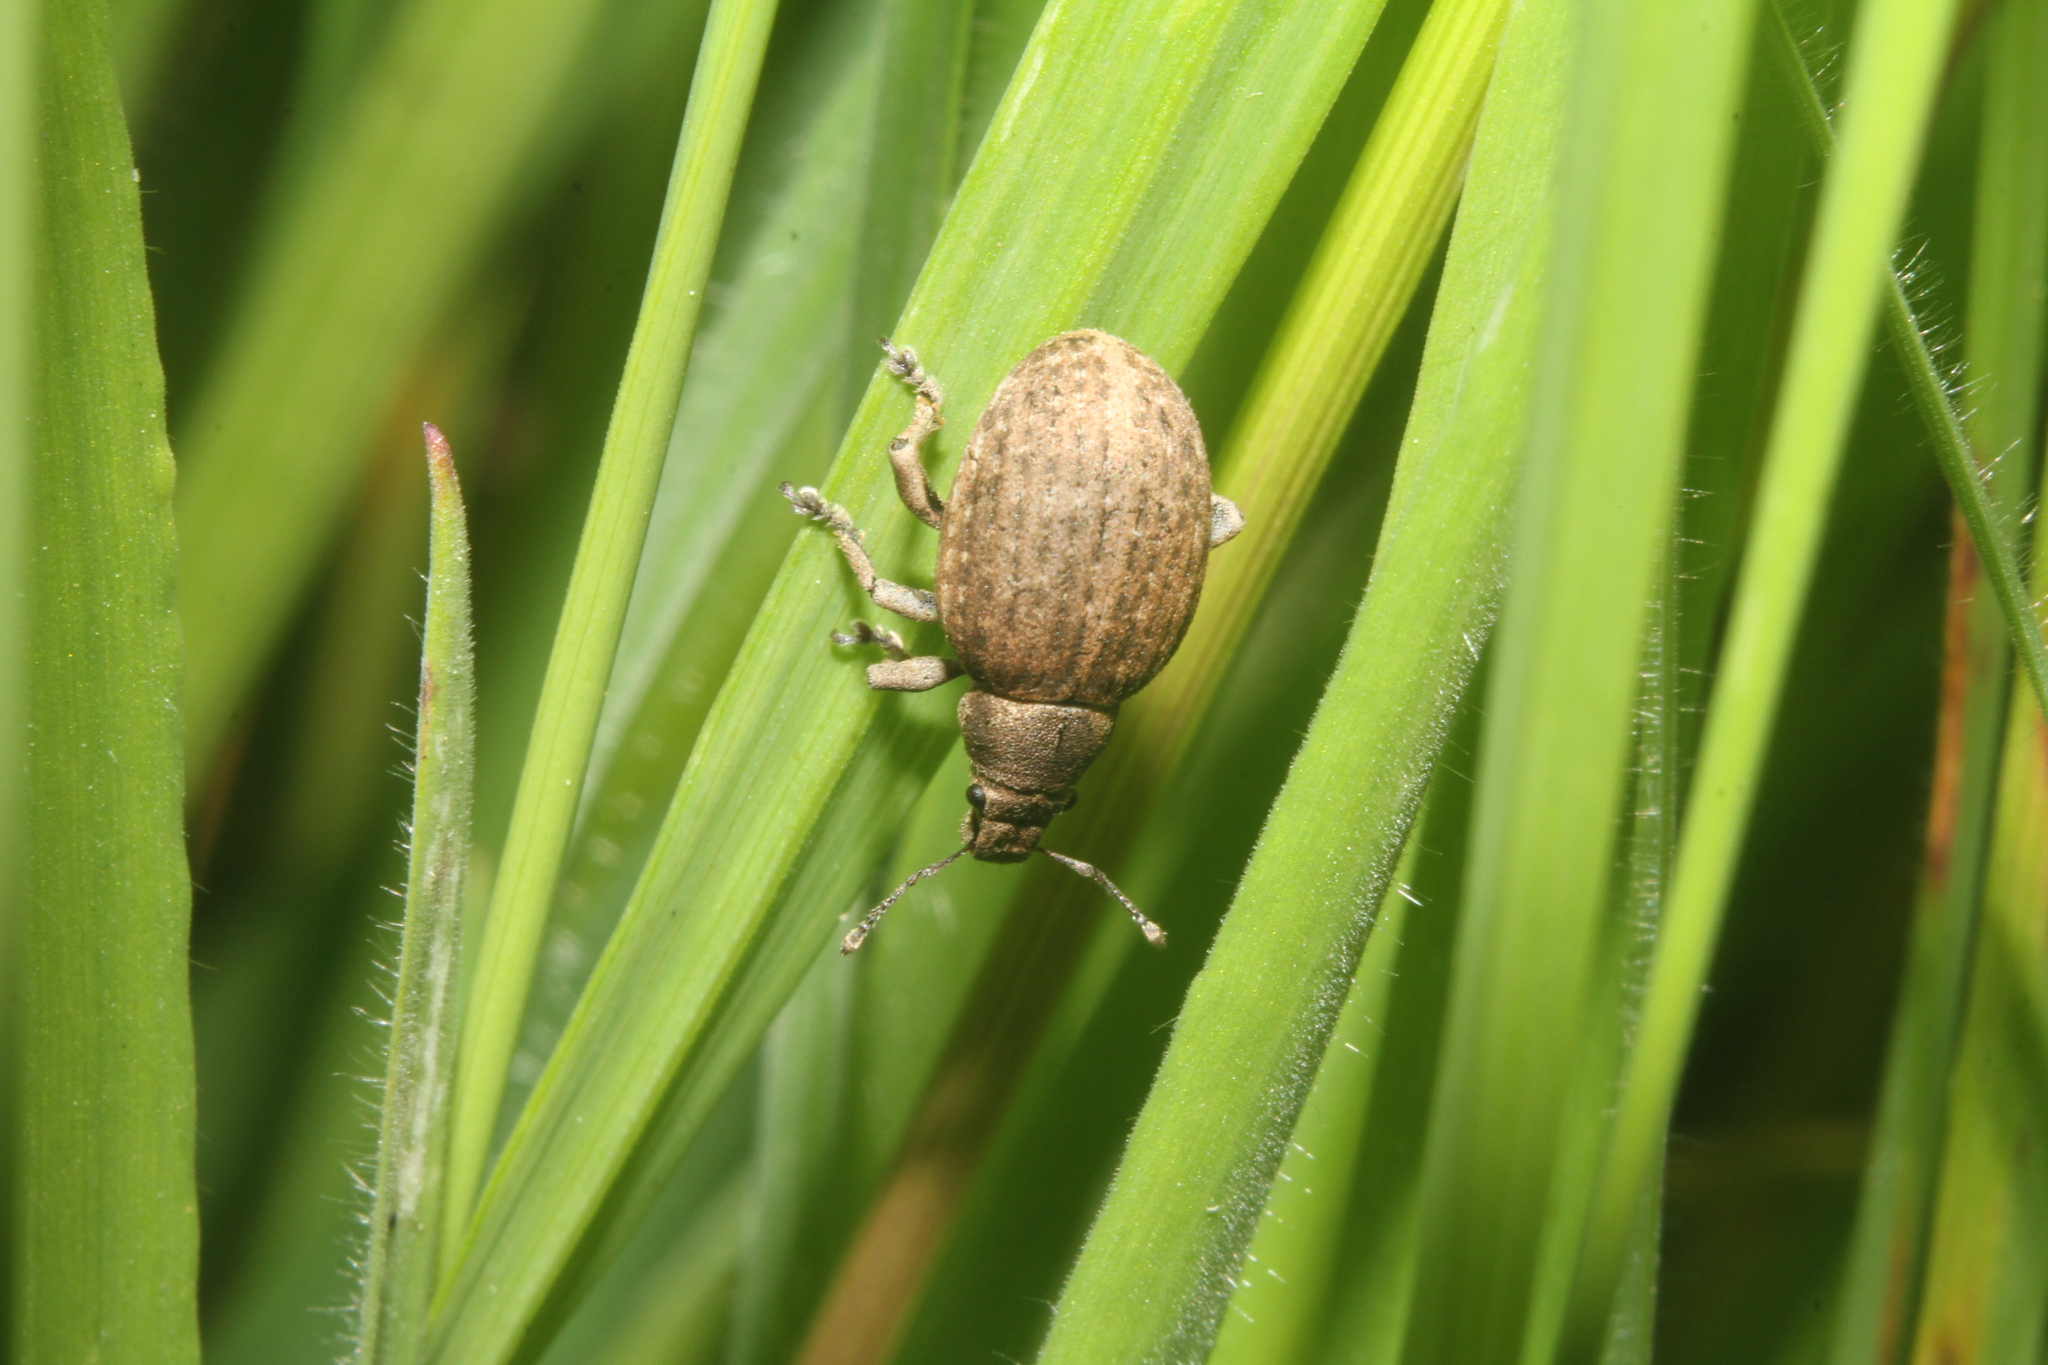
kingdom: Animalia
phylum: Arthropoda
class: Insecta
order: Coleoptera
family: Curculionidae
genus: Attactagenus
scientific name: Attactagenus plumbeus
